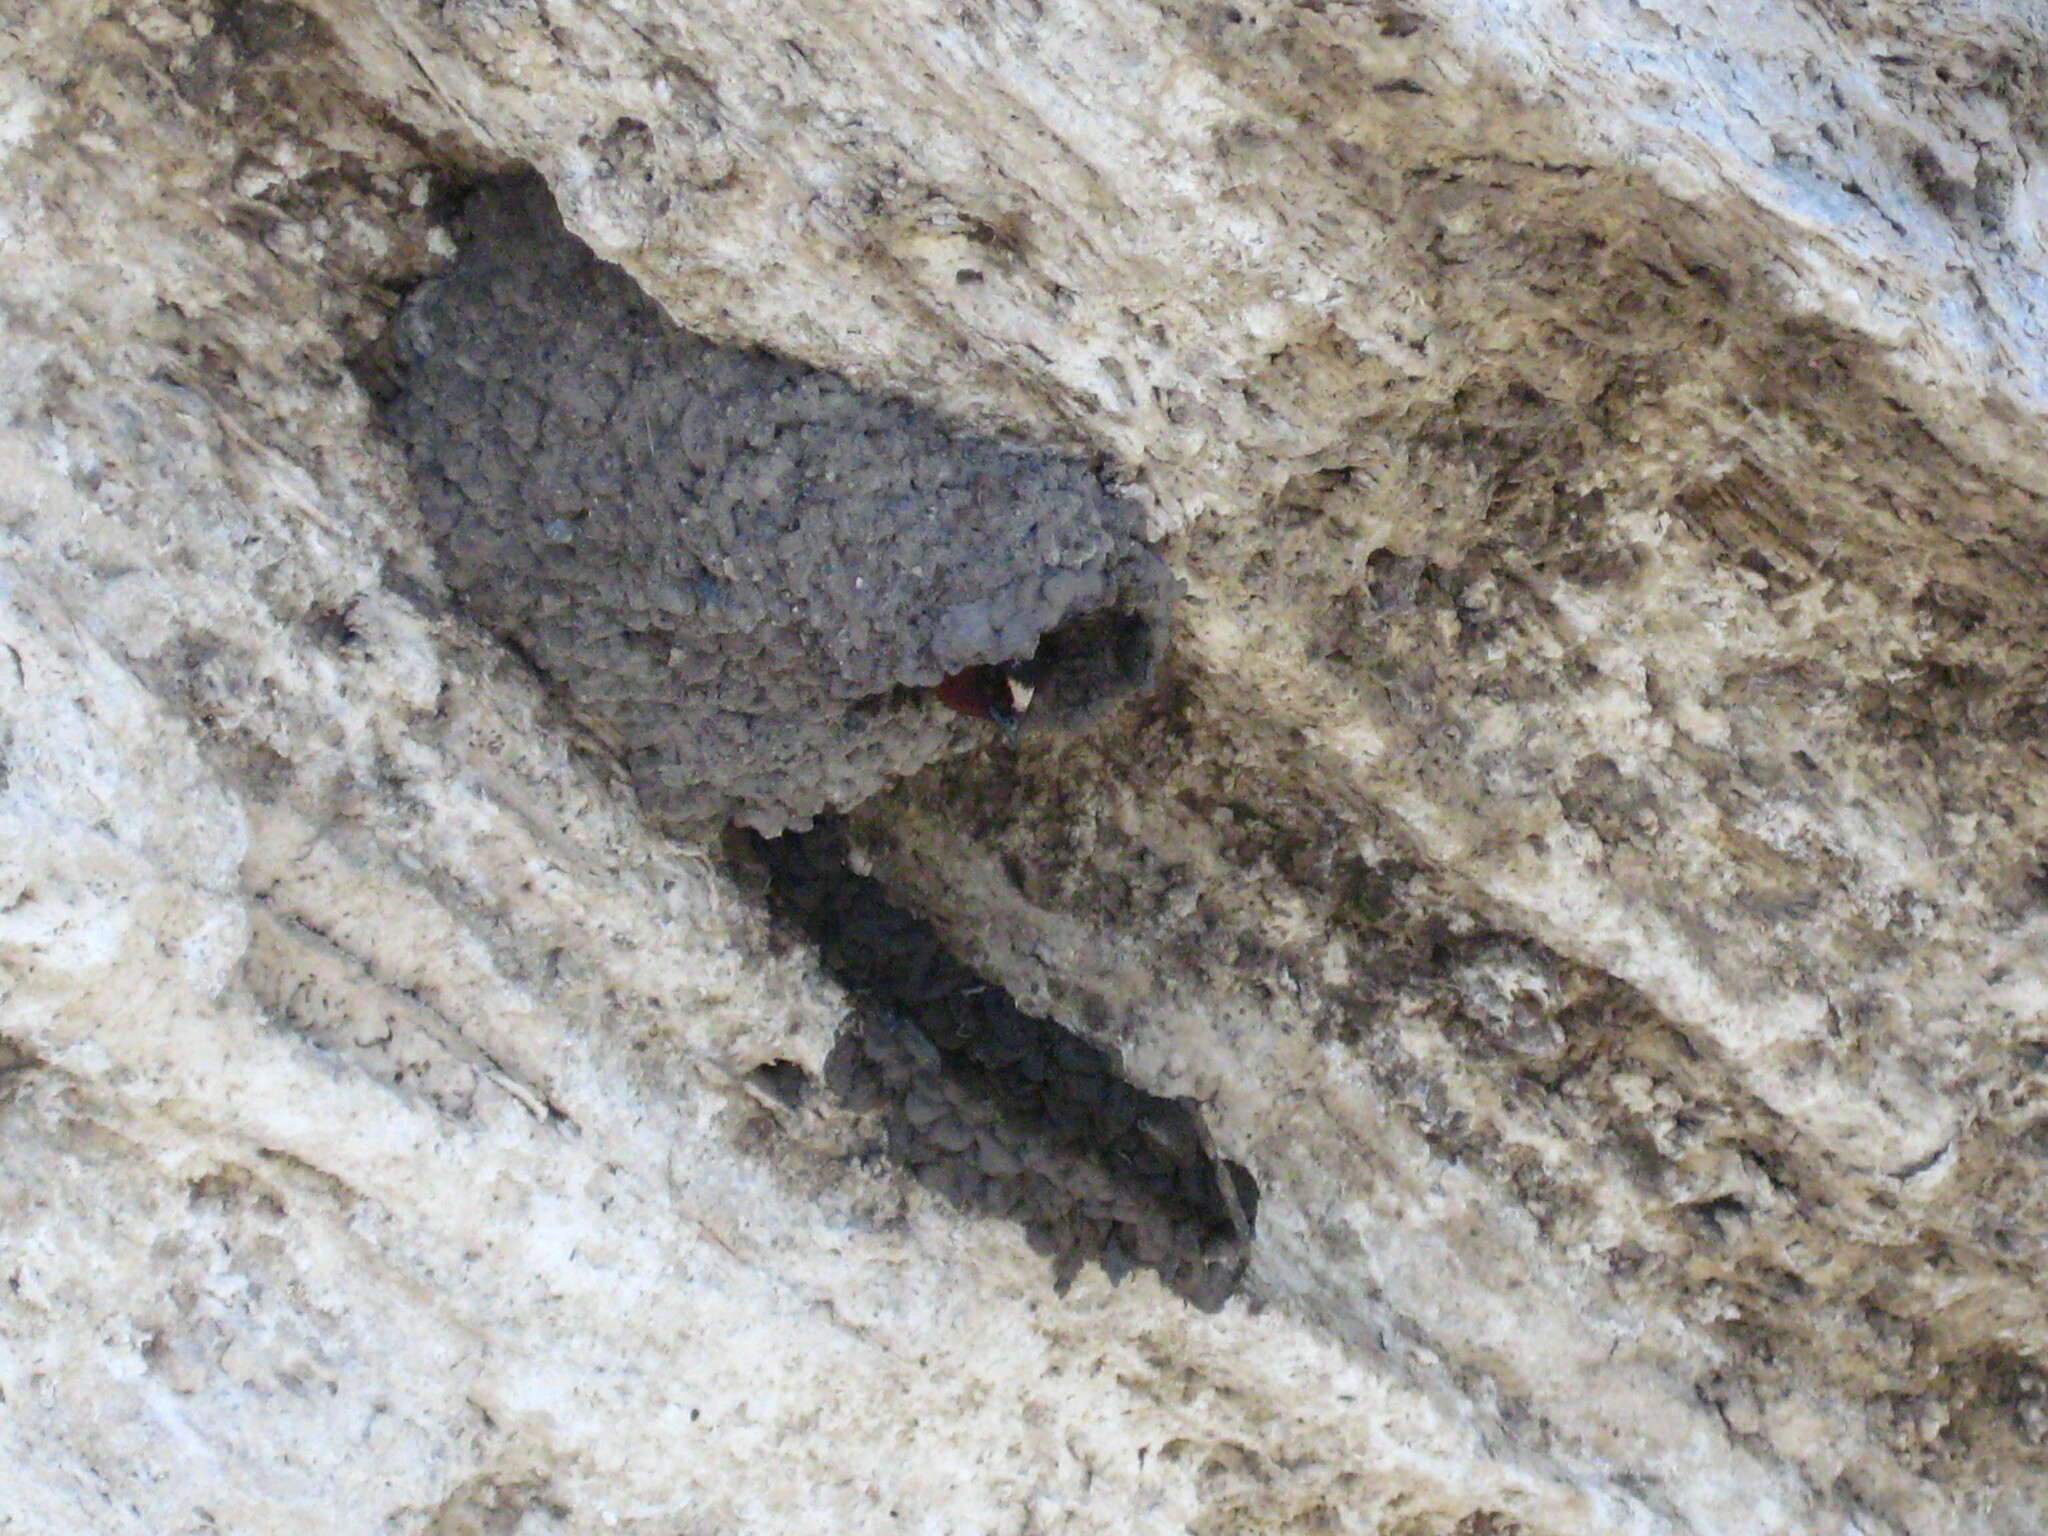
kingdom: Animalia
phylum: Chordata
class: Aves
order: Passeriformes
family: Hirundinidae
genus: Petrochelidon
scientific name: Petrochelidon pyrrhonota
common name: American cliff swallow
